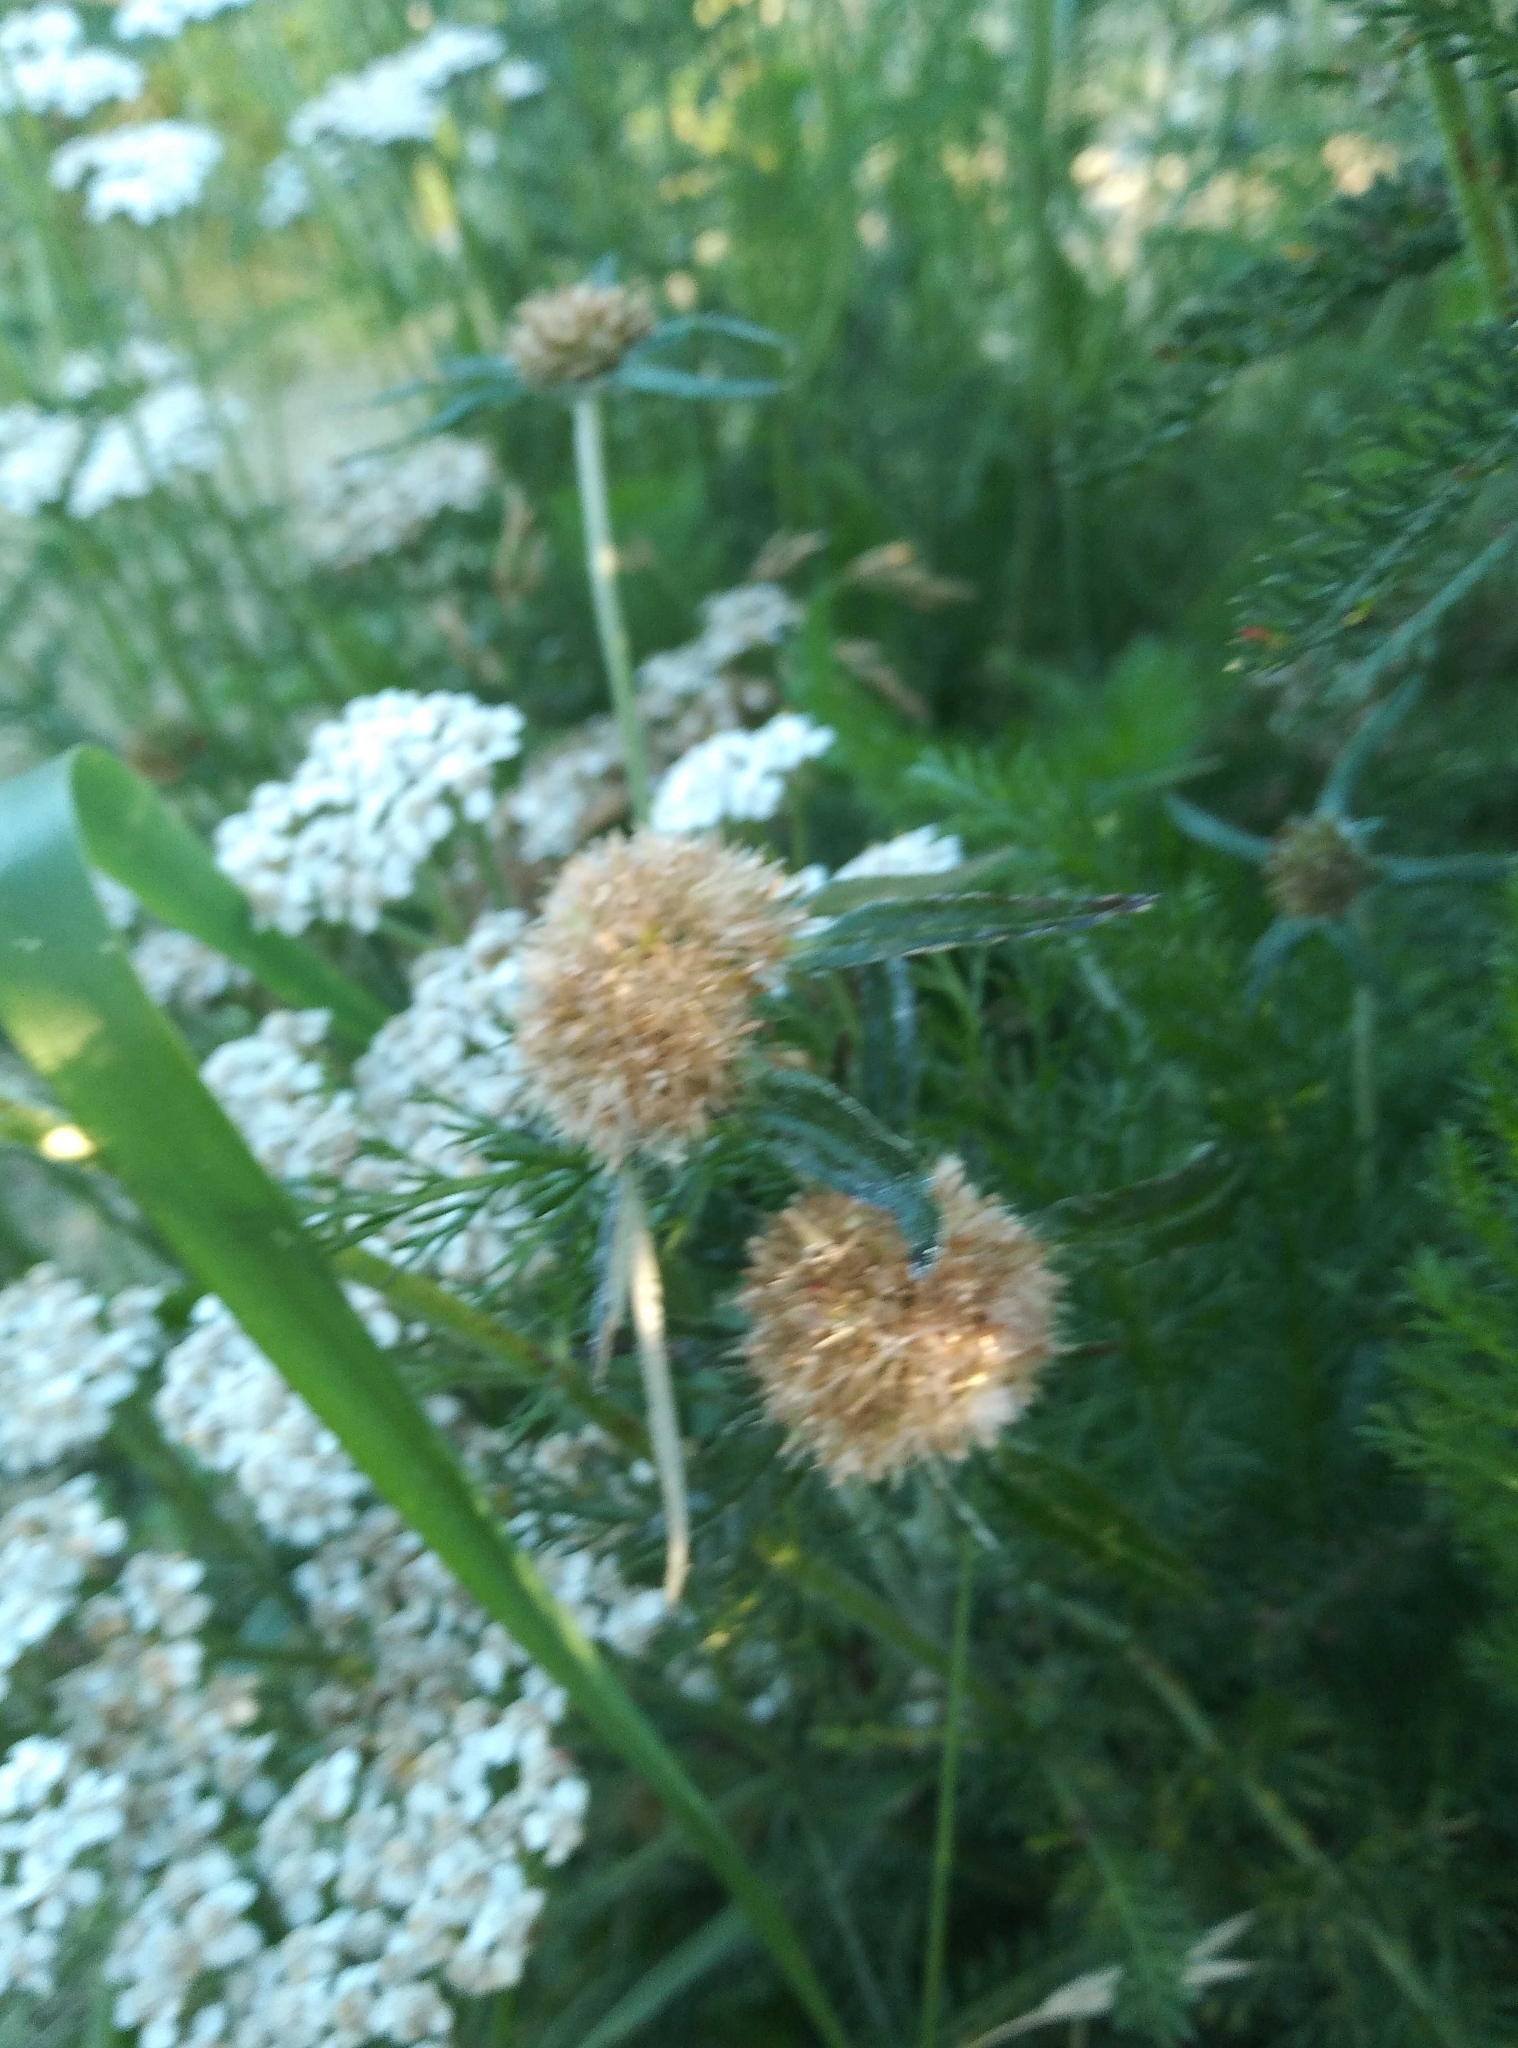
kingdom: Plantae
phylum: Tracheophyta
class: Magnoliopsida
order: Asterales
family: Asteraceae
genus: Euchiton
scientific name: Euchiton sphaericus
